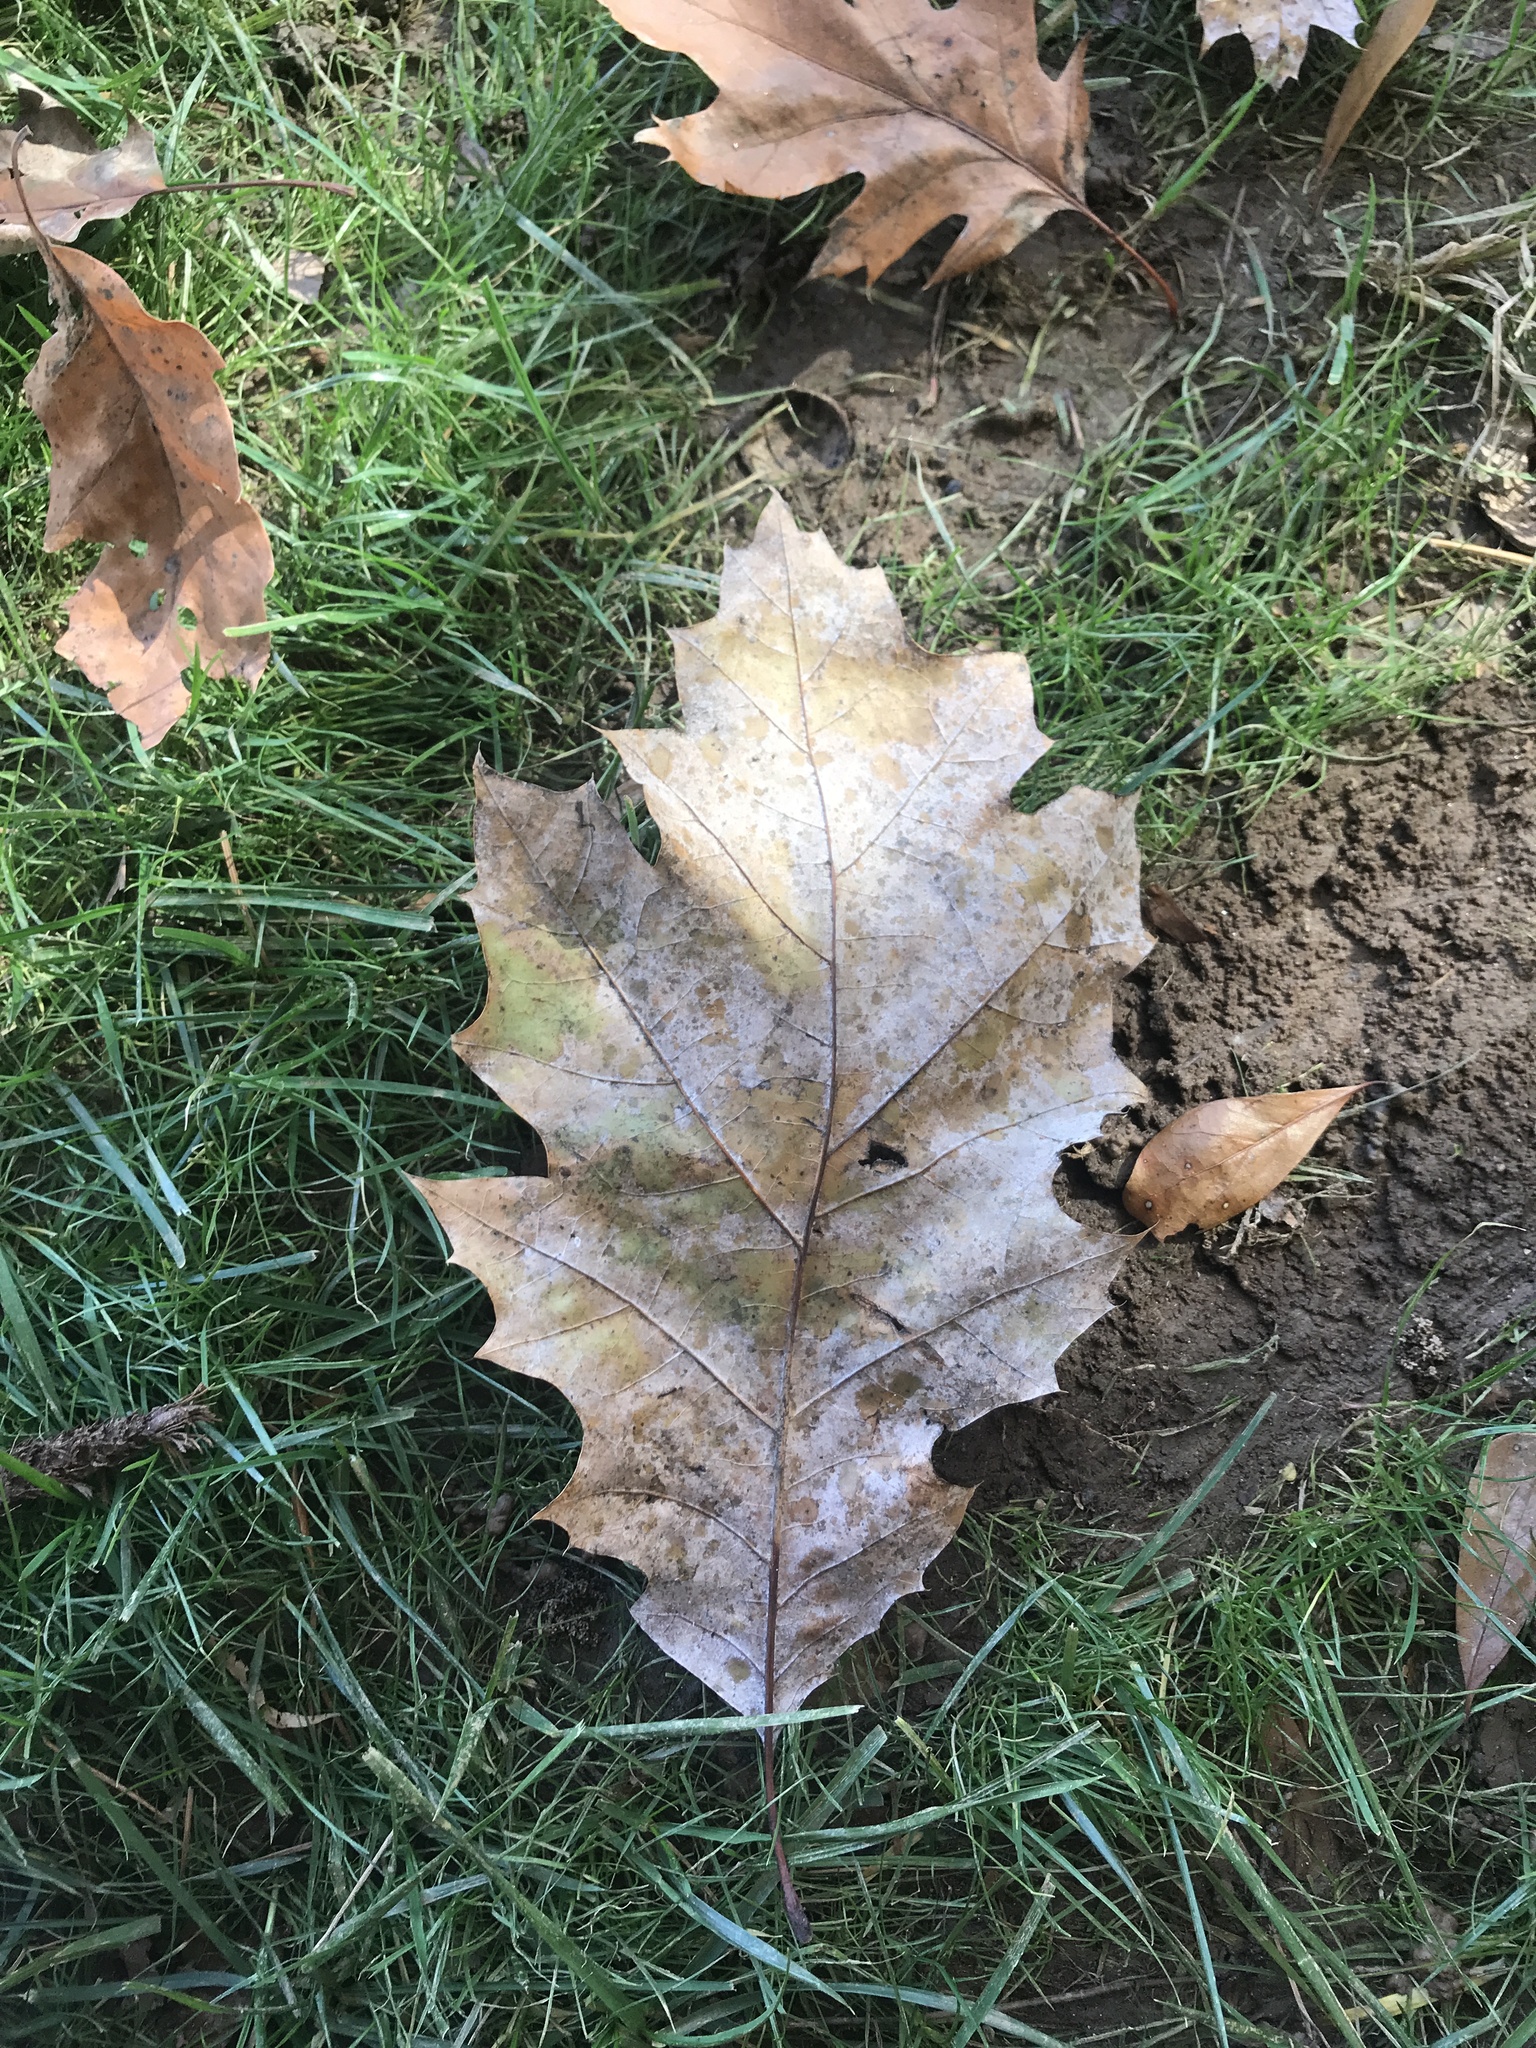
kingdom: Plantae
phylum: Tracheophyta
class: Magnoliopsida
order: Fagales
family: Fagaceae
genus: Quercus
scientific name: Quercus rubra
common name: Red oak
